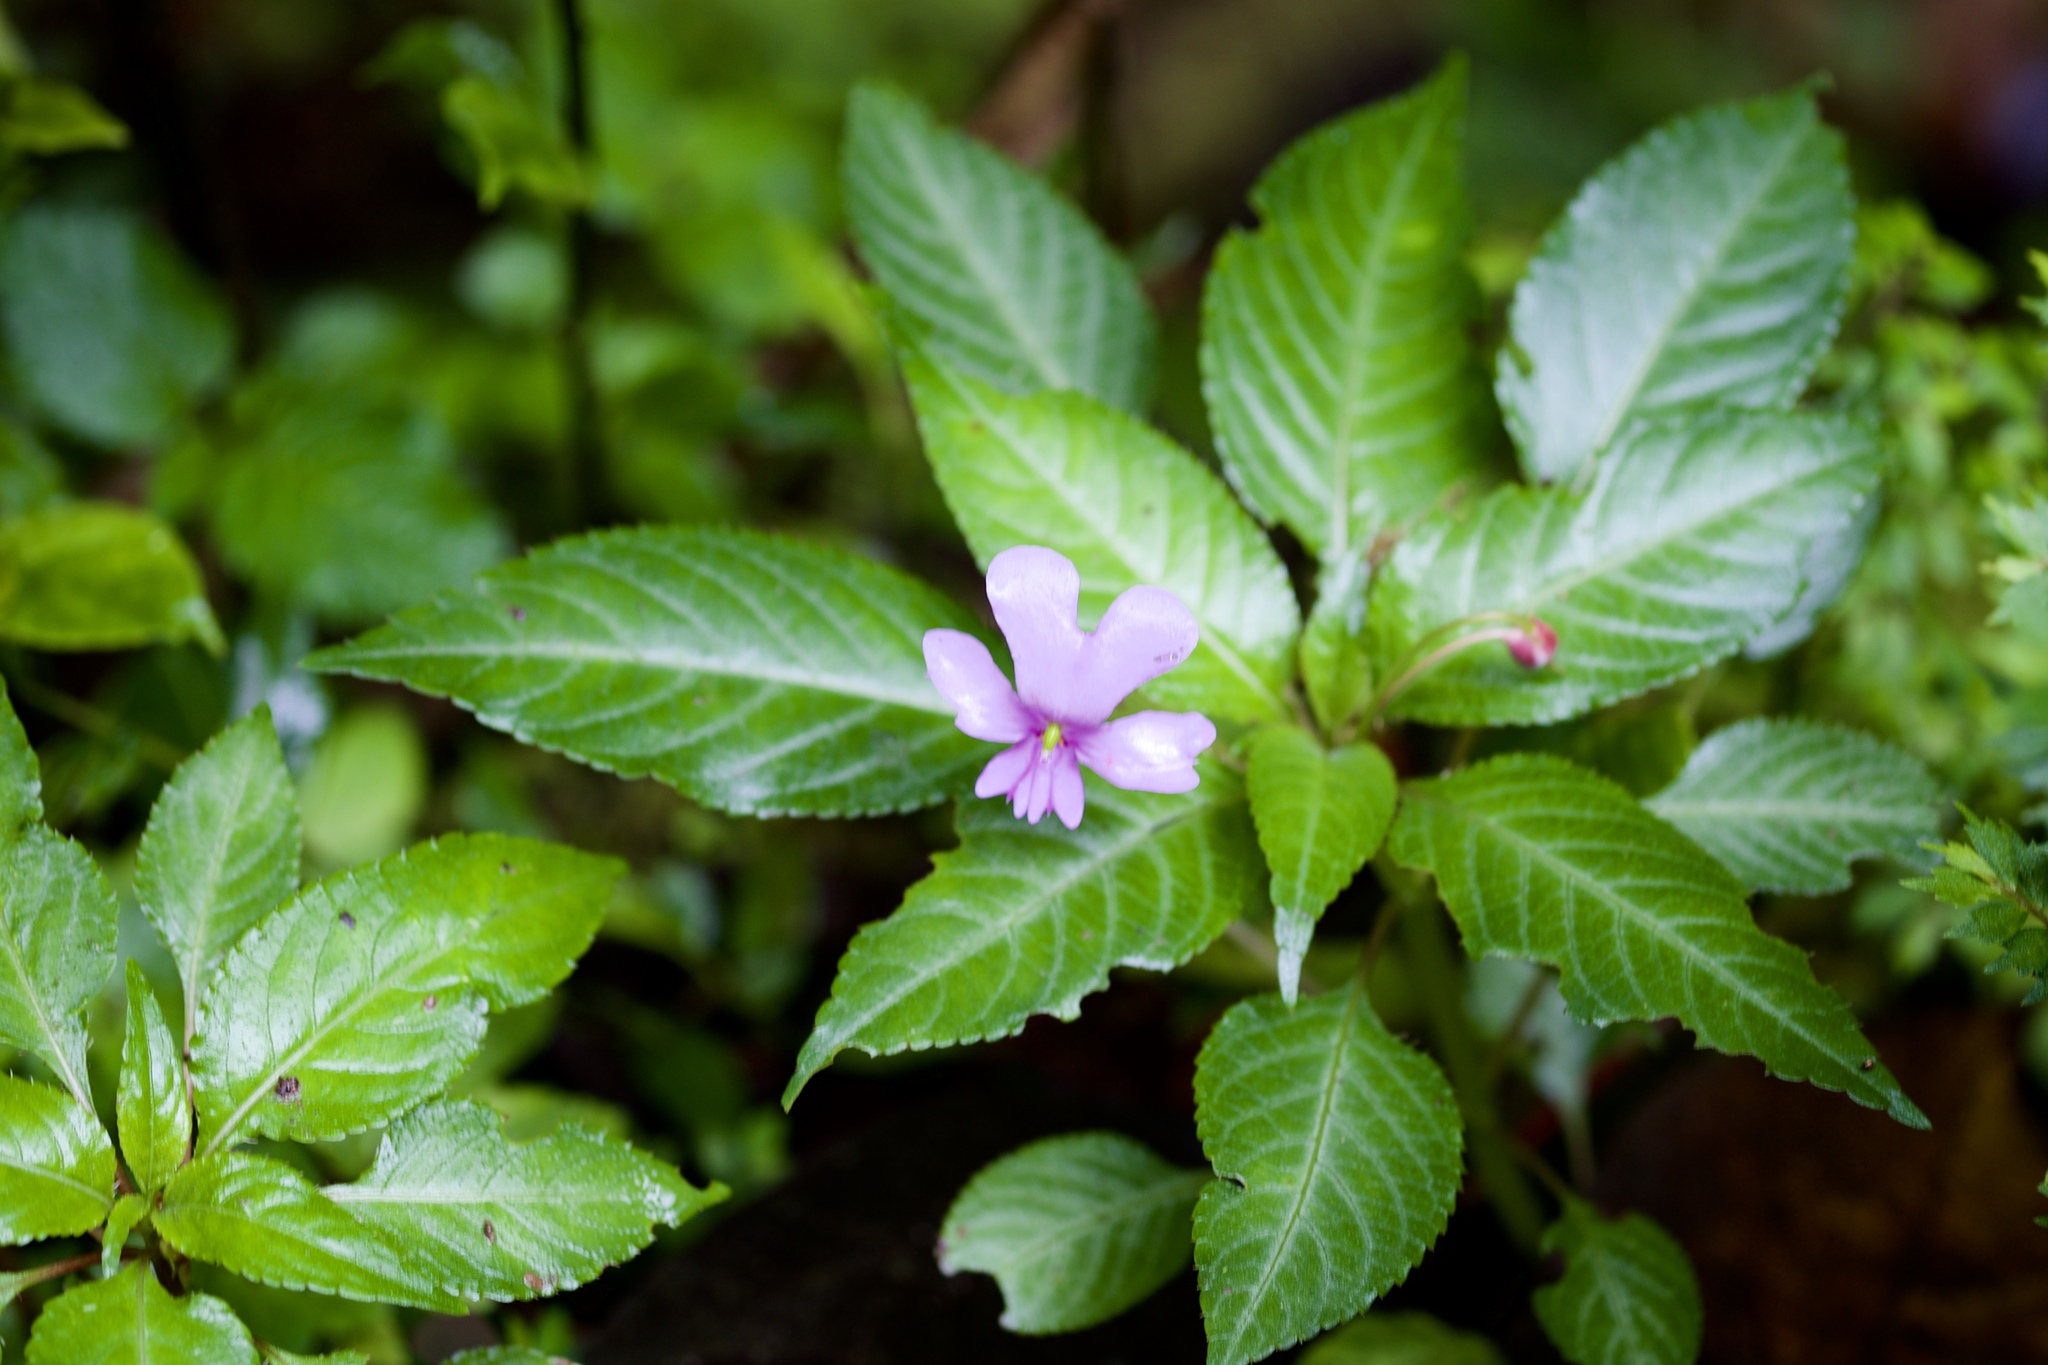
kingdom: Plantae
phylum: Tracheophyta
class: Magnoliopsida
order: Ericales
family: Balsaminaceae
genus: Impatiens
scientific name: Impatiens kinabaluensis
